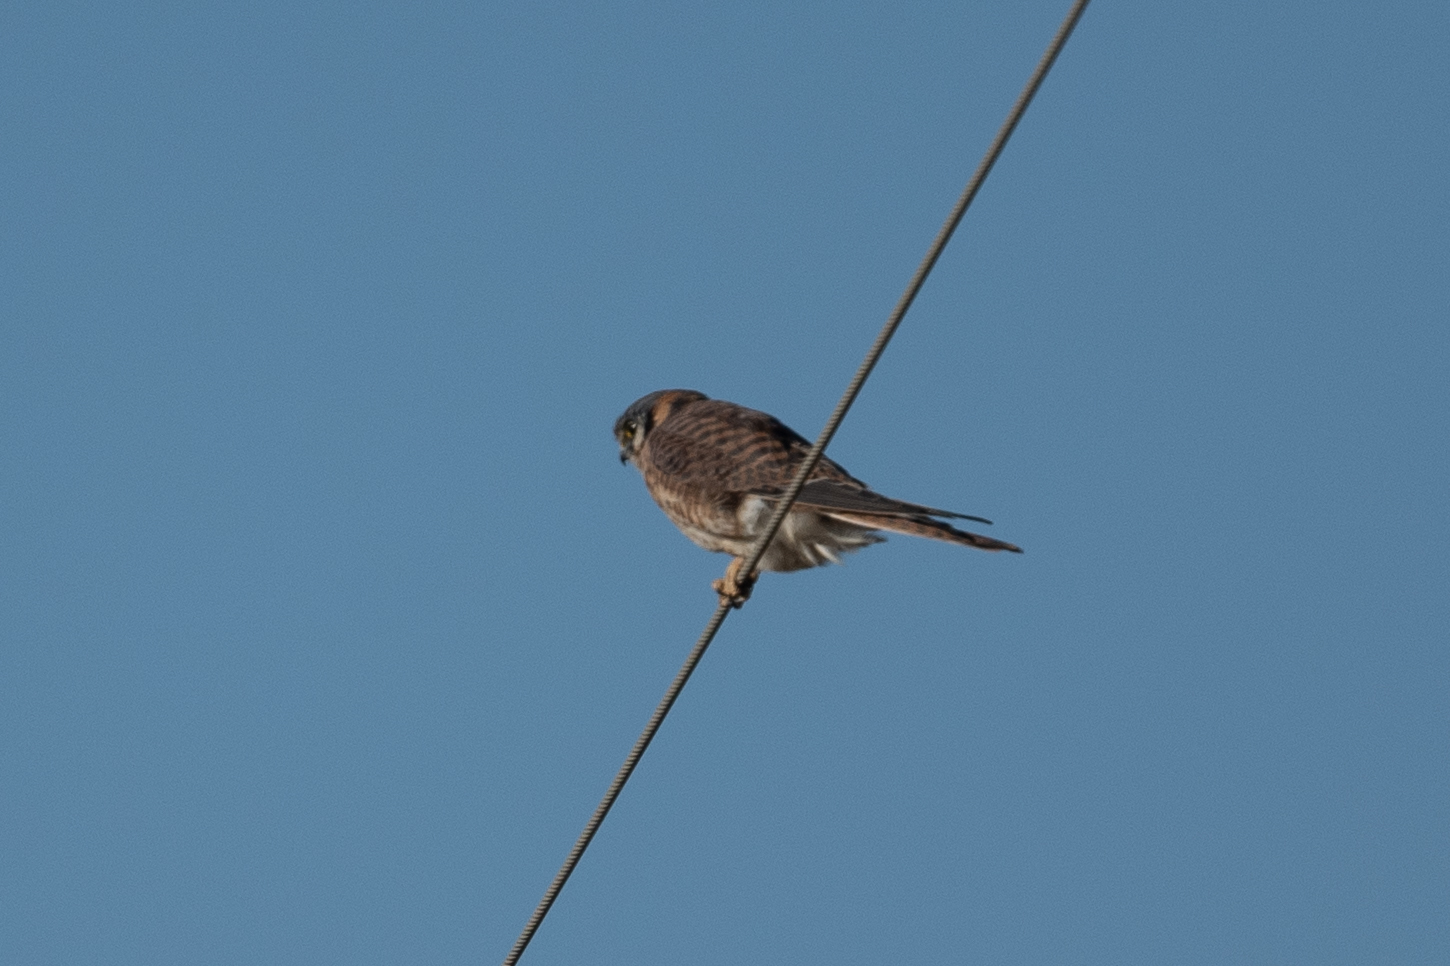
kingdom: Animalia
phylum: Chordata
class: Aves
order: Falconiformes
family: Falconidae
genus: Falco
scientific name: Falco sparverius
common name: American kestrel
